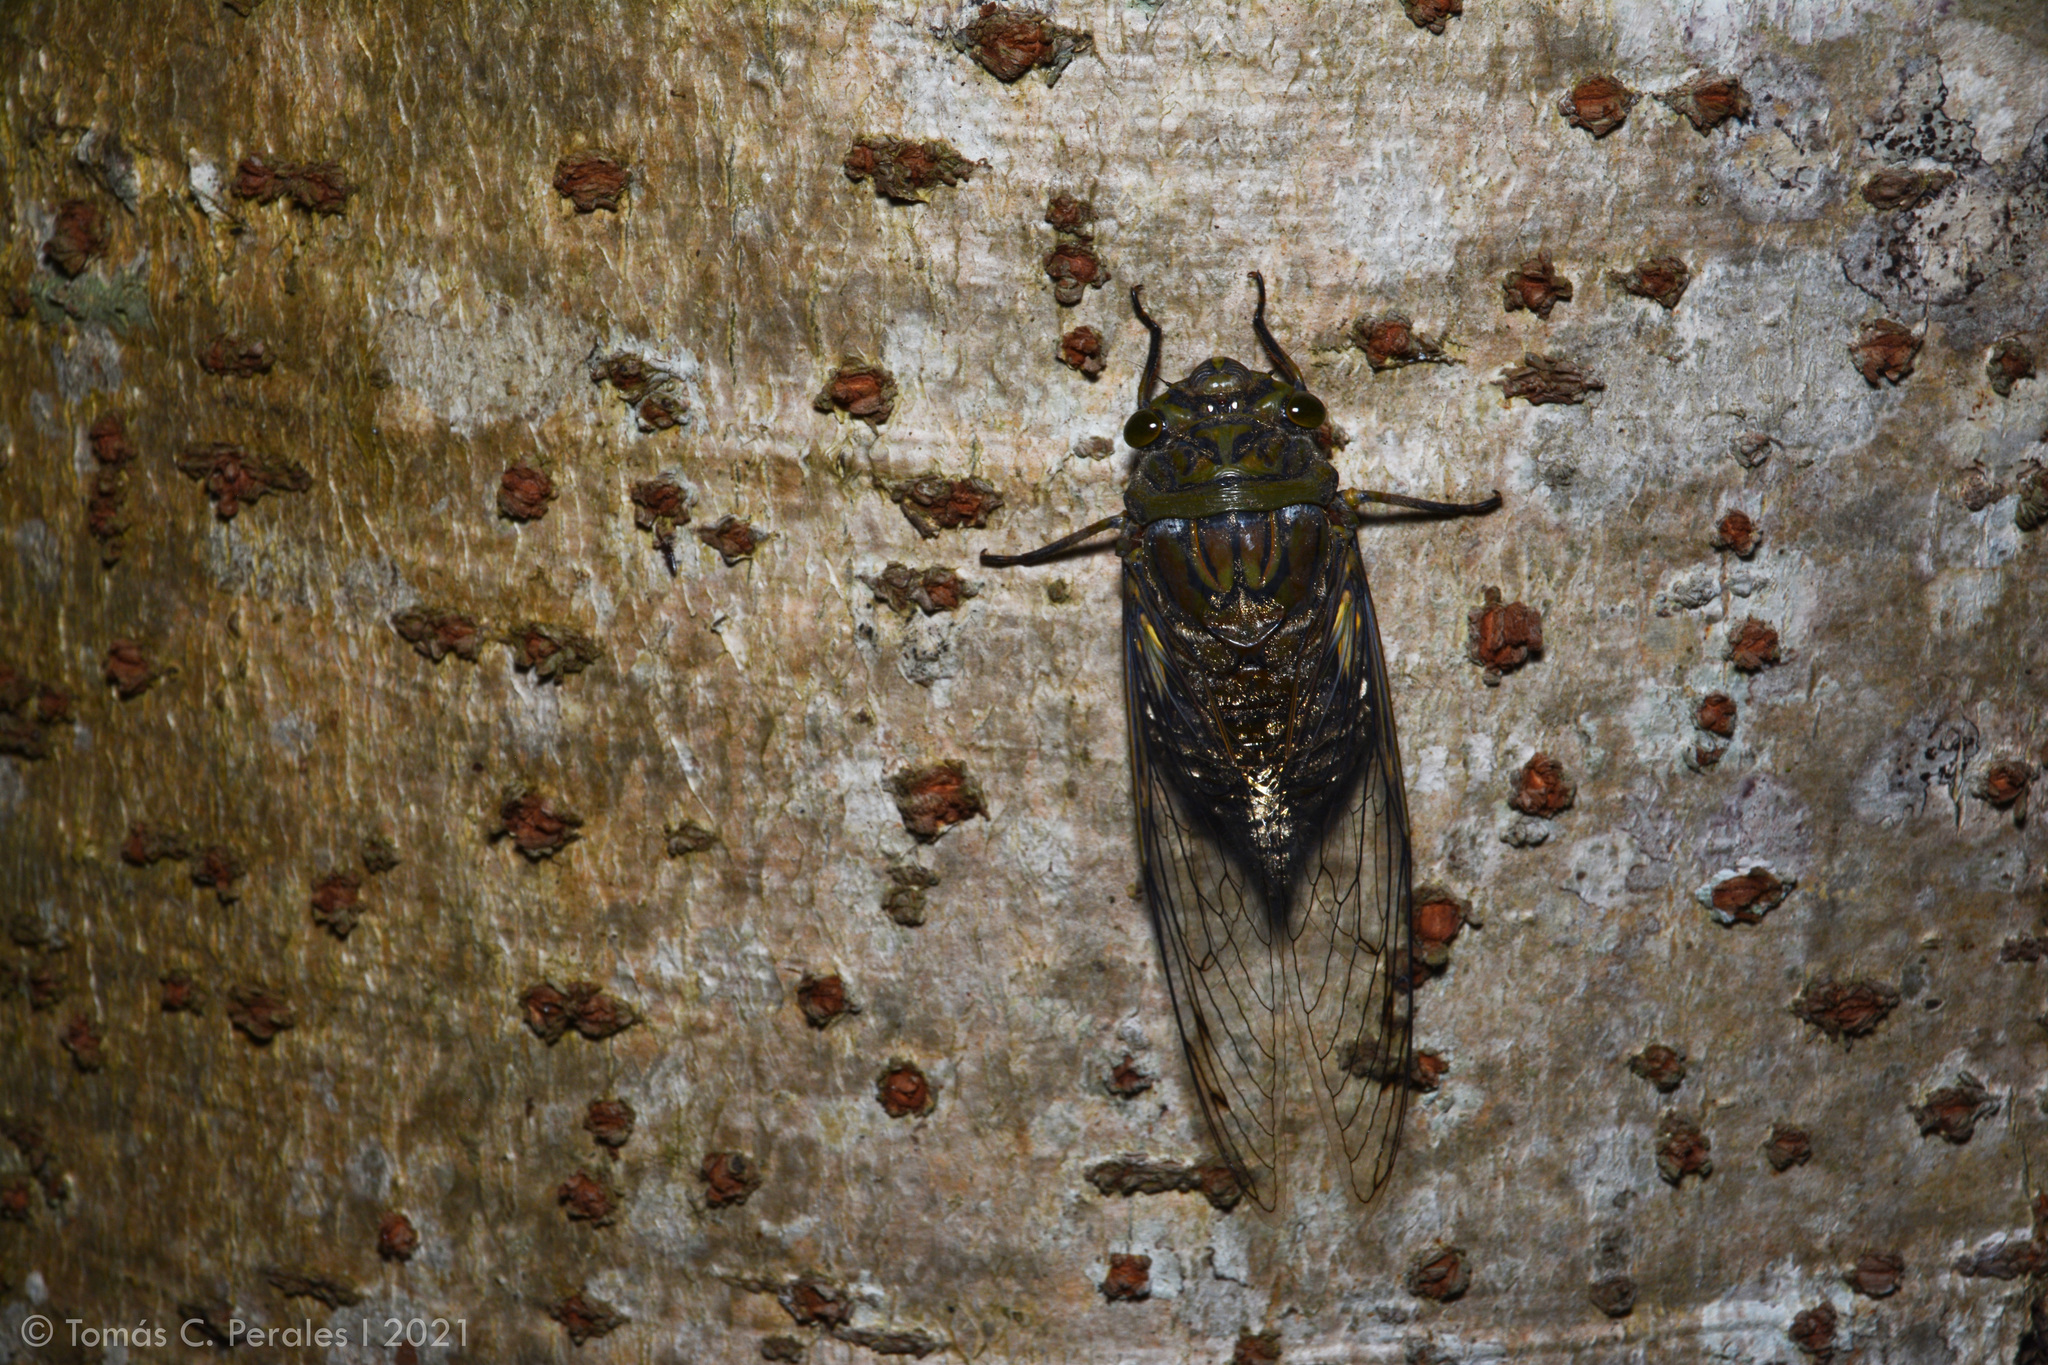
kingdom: Animalia
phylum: Arthropoda
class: Insecta
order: Hemiptera
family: Cicadidae
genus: Quesada
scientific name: Quesada gigas
